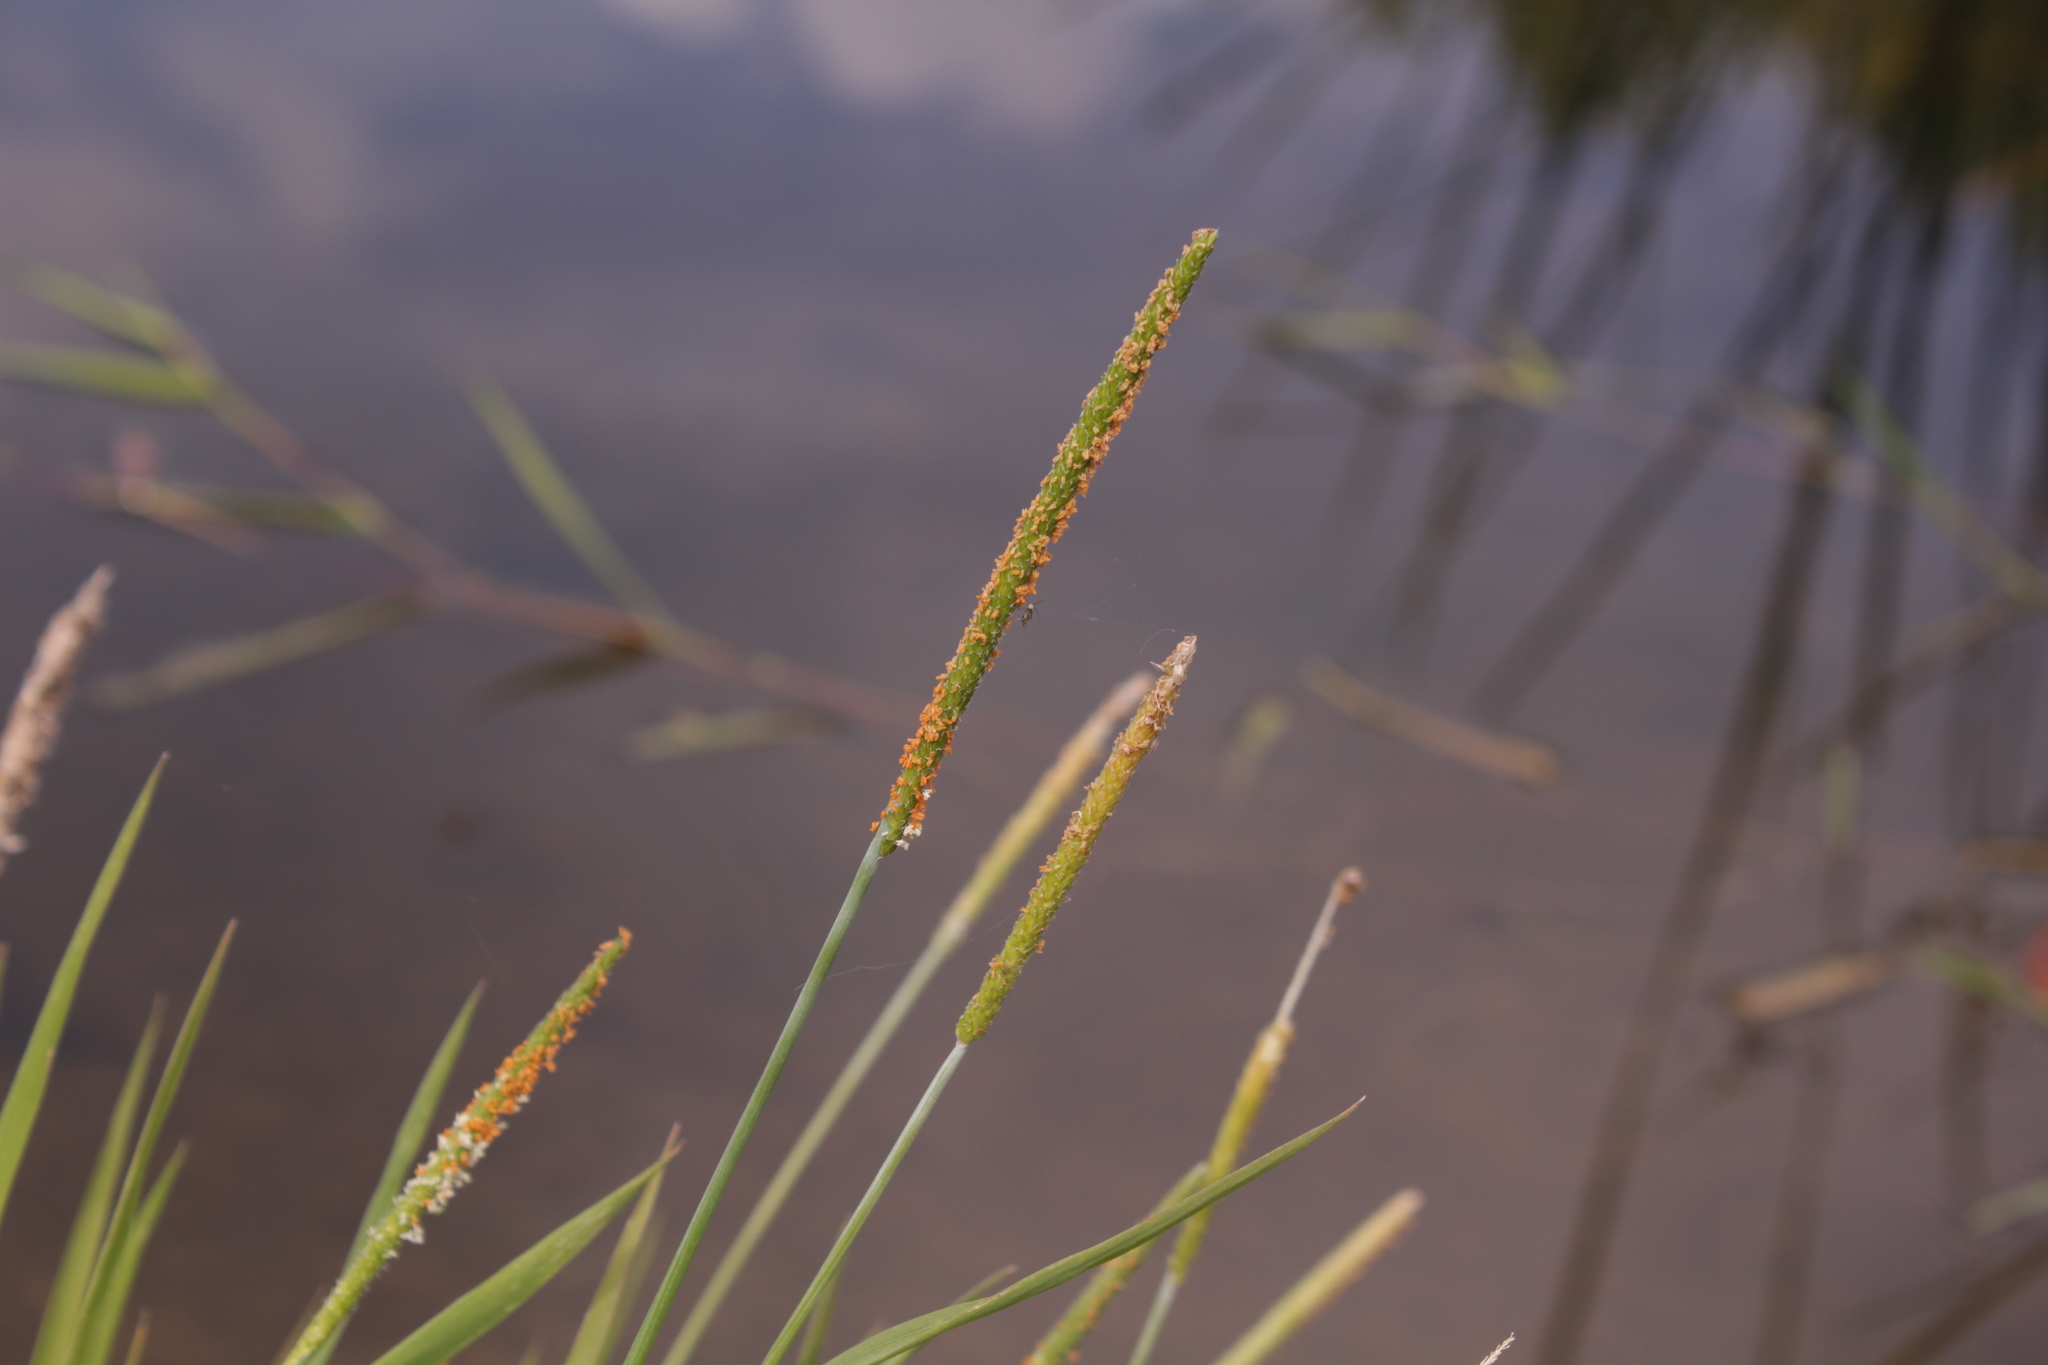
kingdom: Plantae
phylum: Tracheophyta
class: Liliopsida
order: Poales
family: Poaceae
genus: Alopecurus
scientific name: Alopecurus aequalis
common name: Orange foxtail
